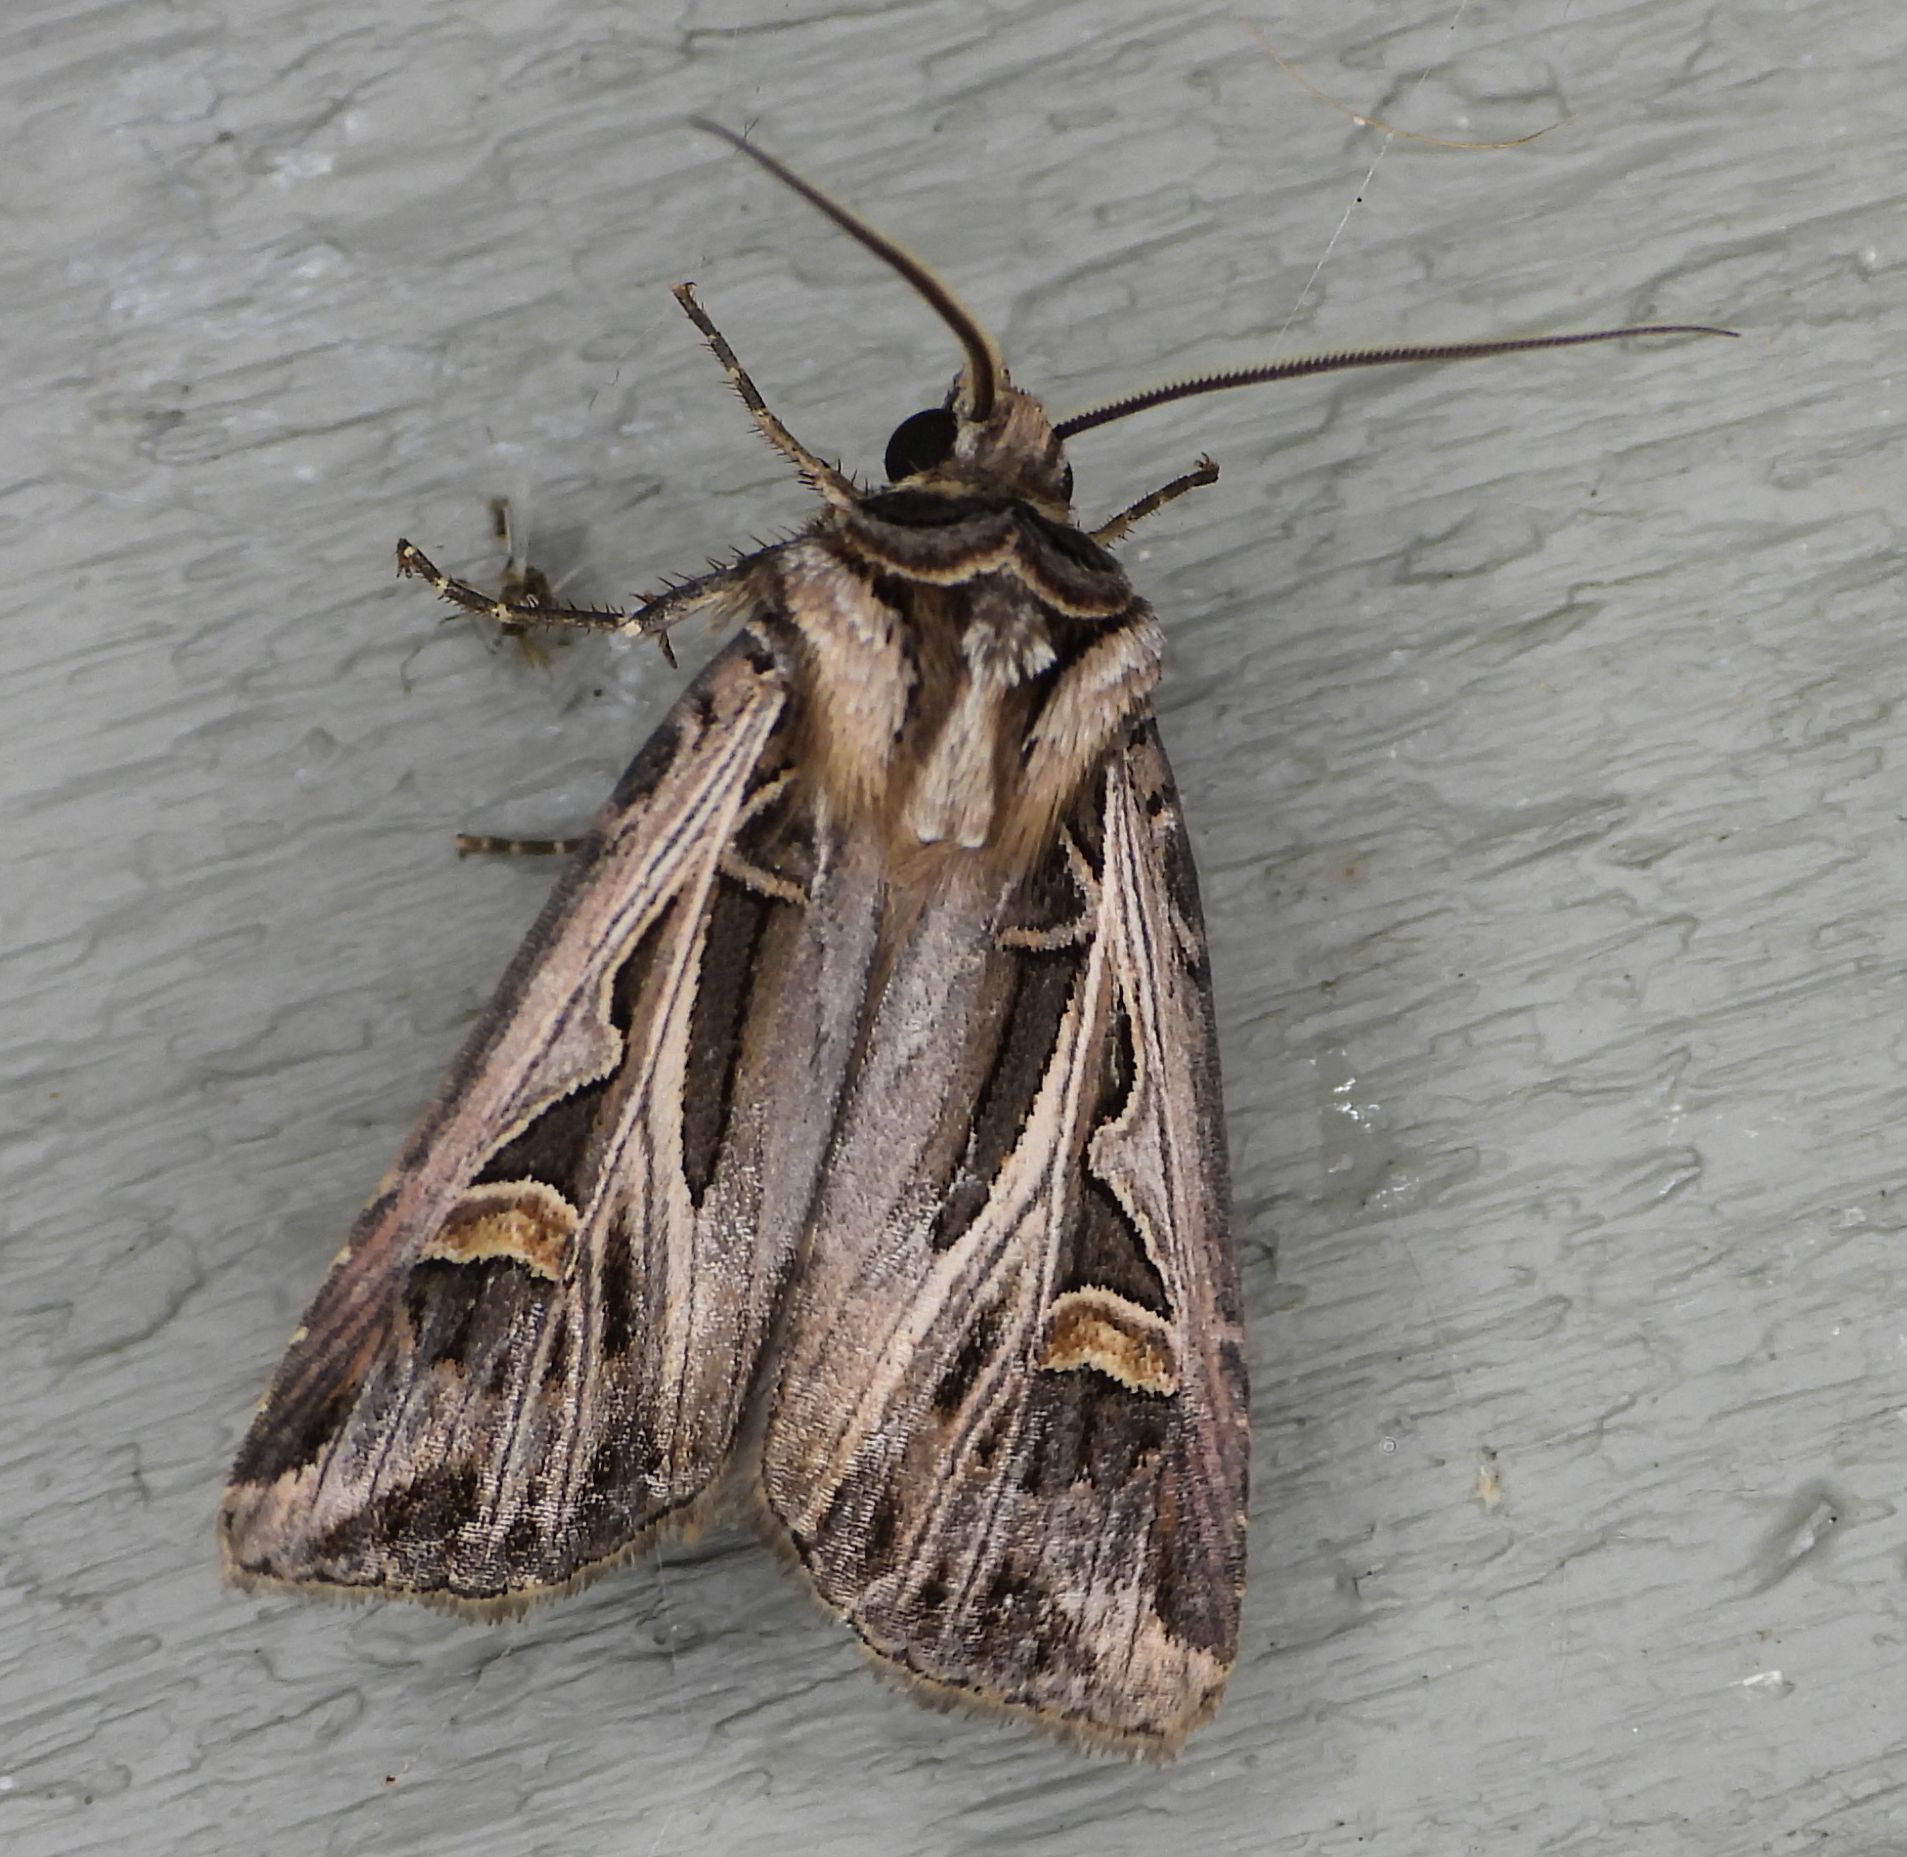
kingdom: Animalia
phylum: Arthropoda
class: Insecta
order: Lepidoptera
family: Noctuidae
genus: Feltia
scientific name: Feltia jaculifera
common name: Dingy cutworm moth
